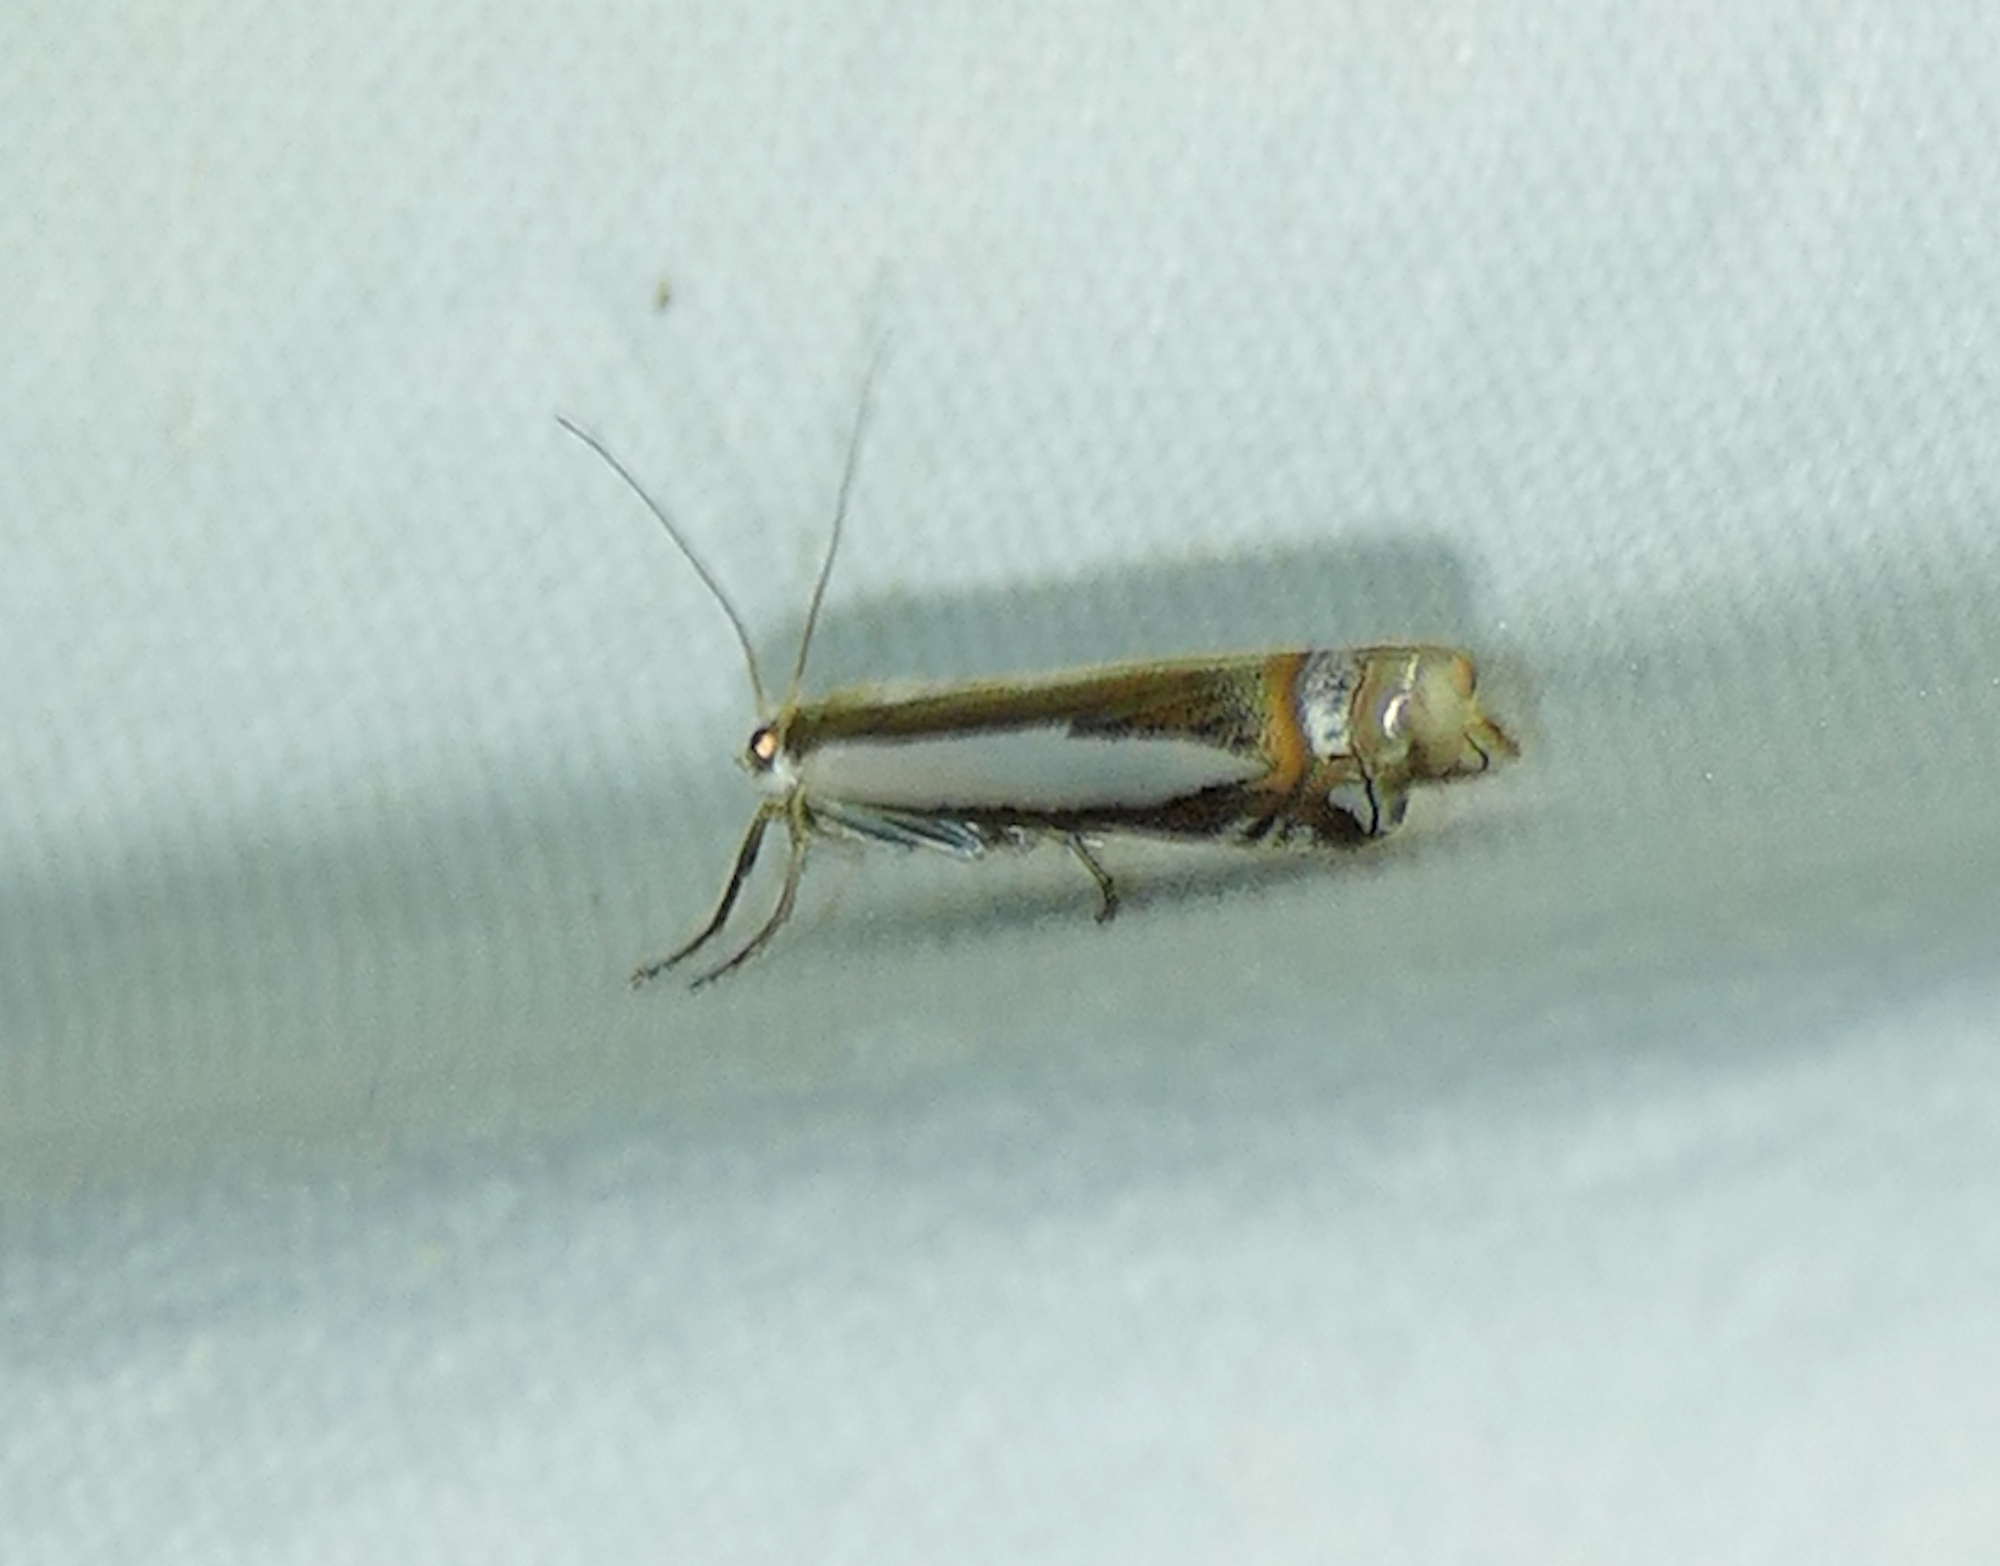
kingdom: Animalia
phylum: Arthropoda
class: Insecta
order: Lepidoptera
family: Crambidae
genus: Crambus
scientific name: Crambus cyrilellus
